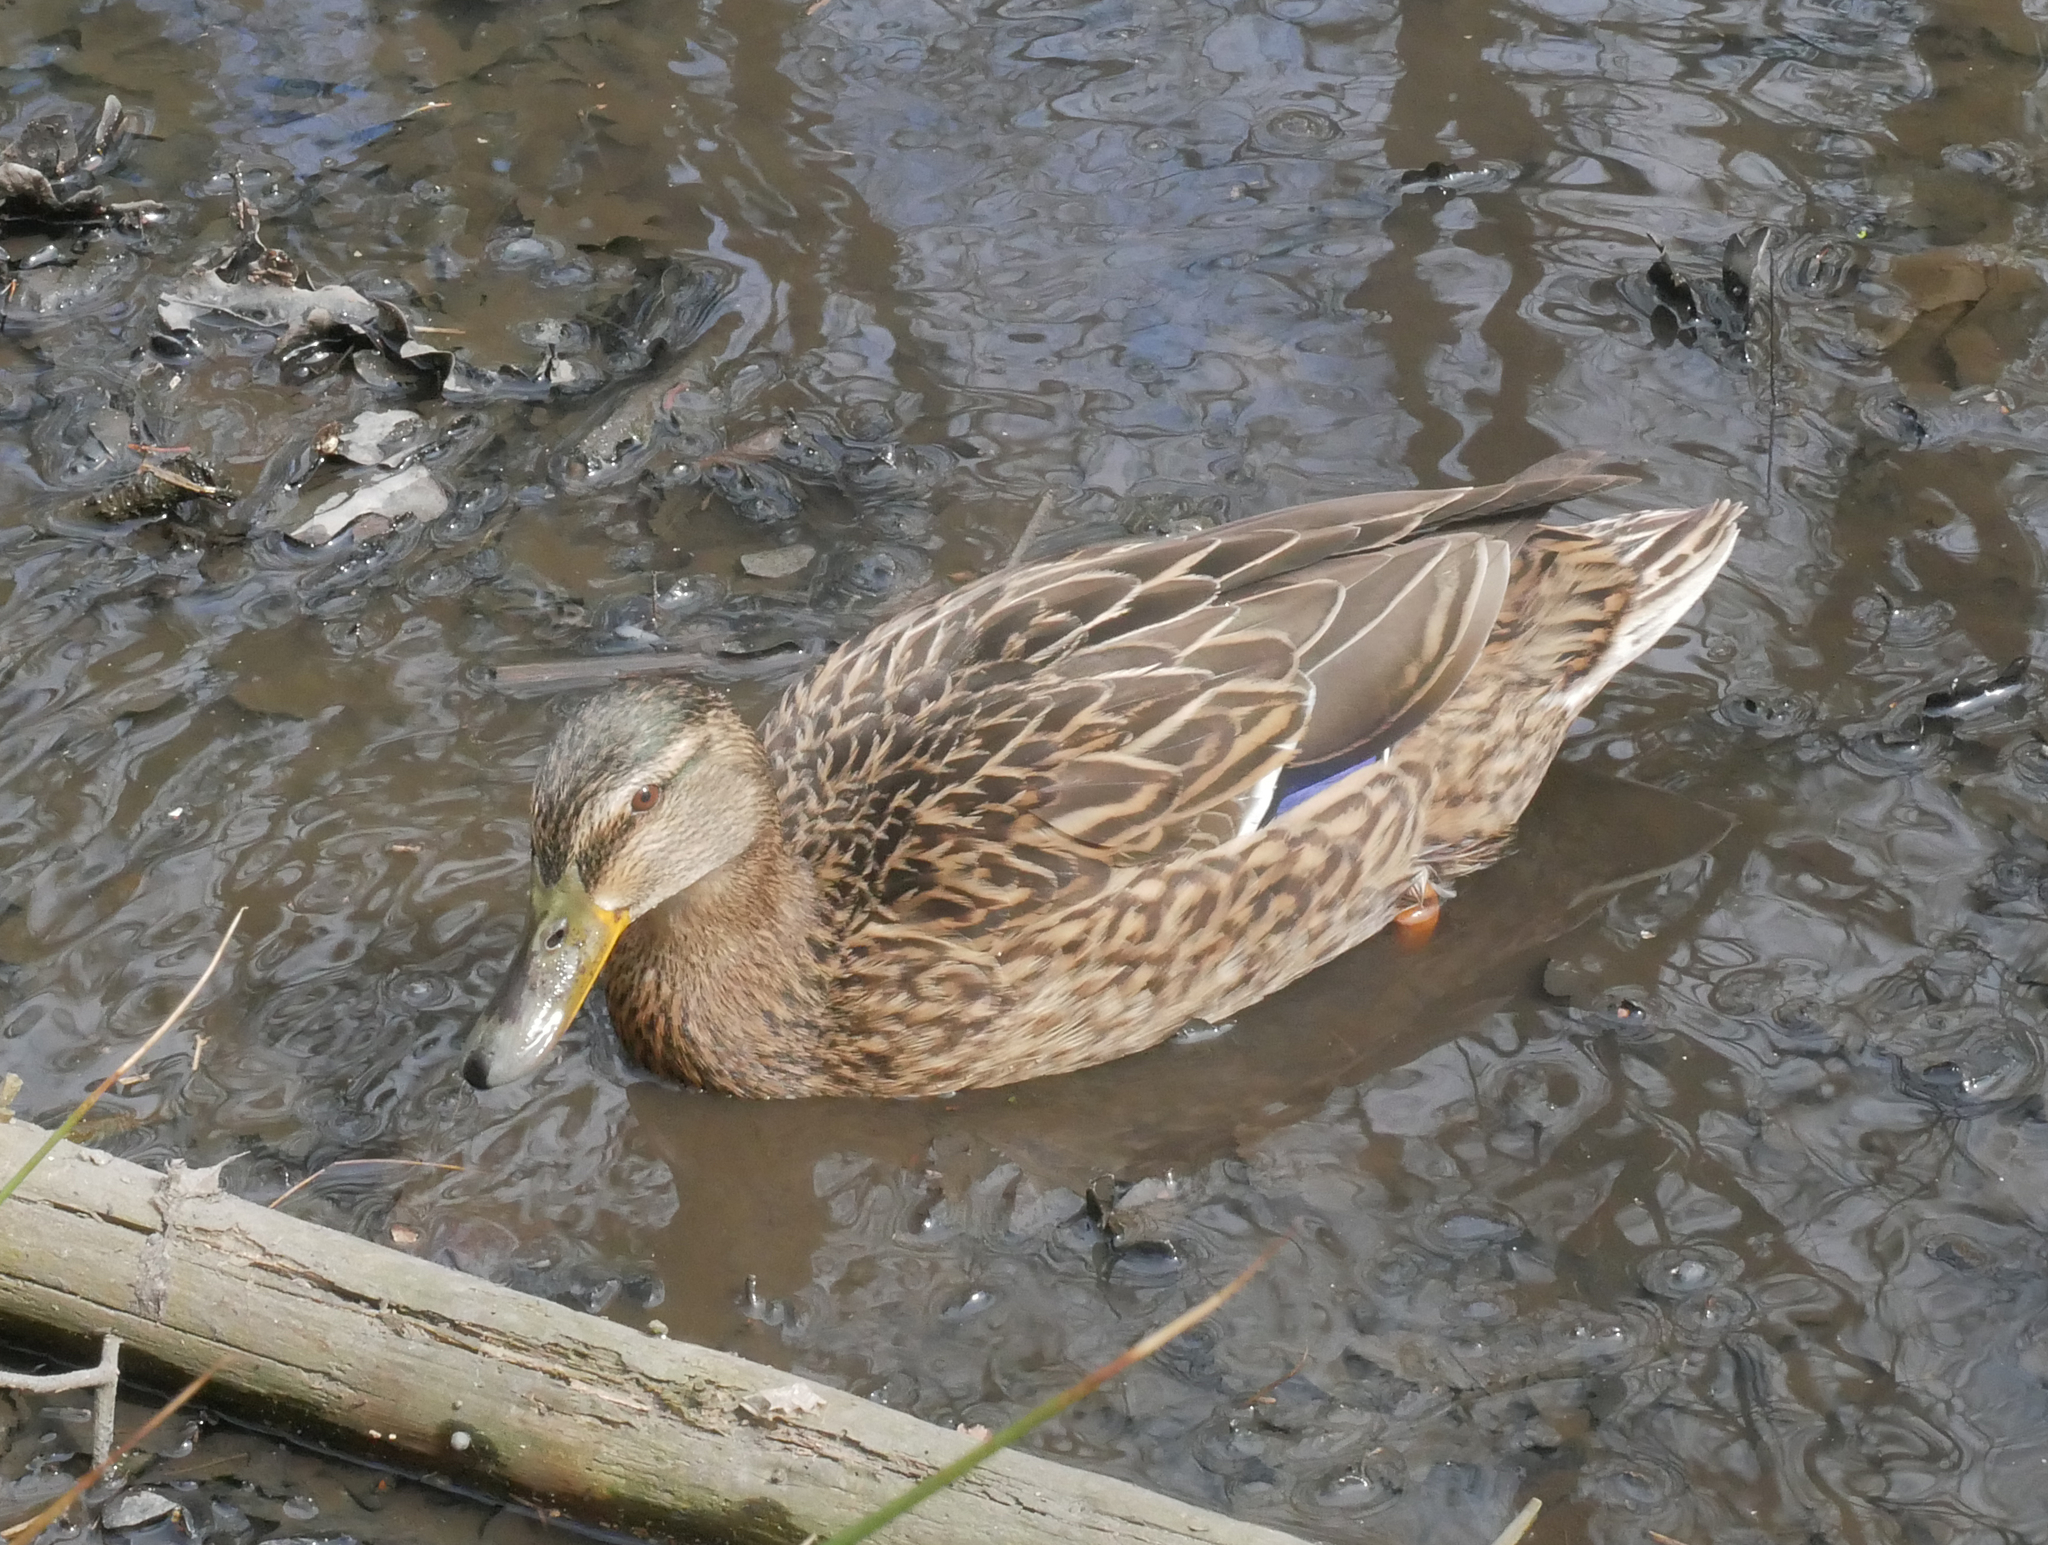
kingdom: Animalia
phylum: Chordata
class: Aves
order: Anseriformes
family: Anatidae
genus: Anas
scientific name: Anas platyrhynchos
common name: Mallard
